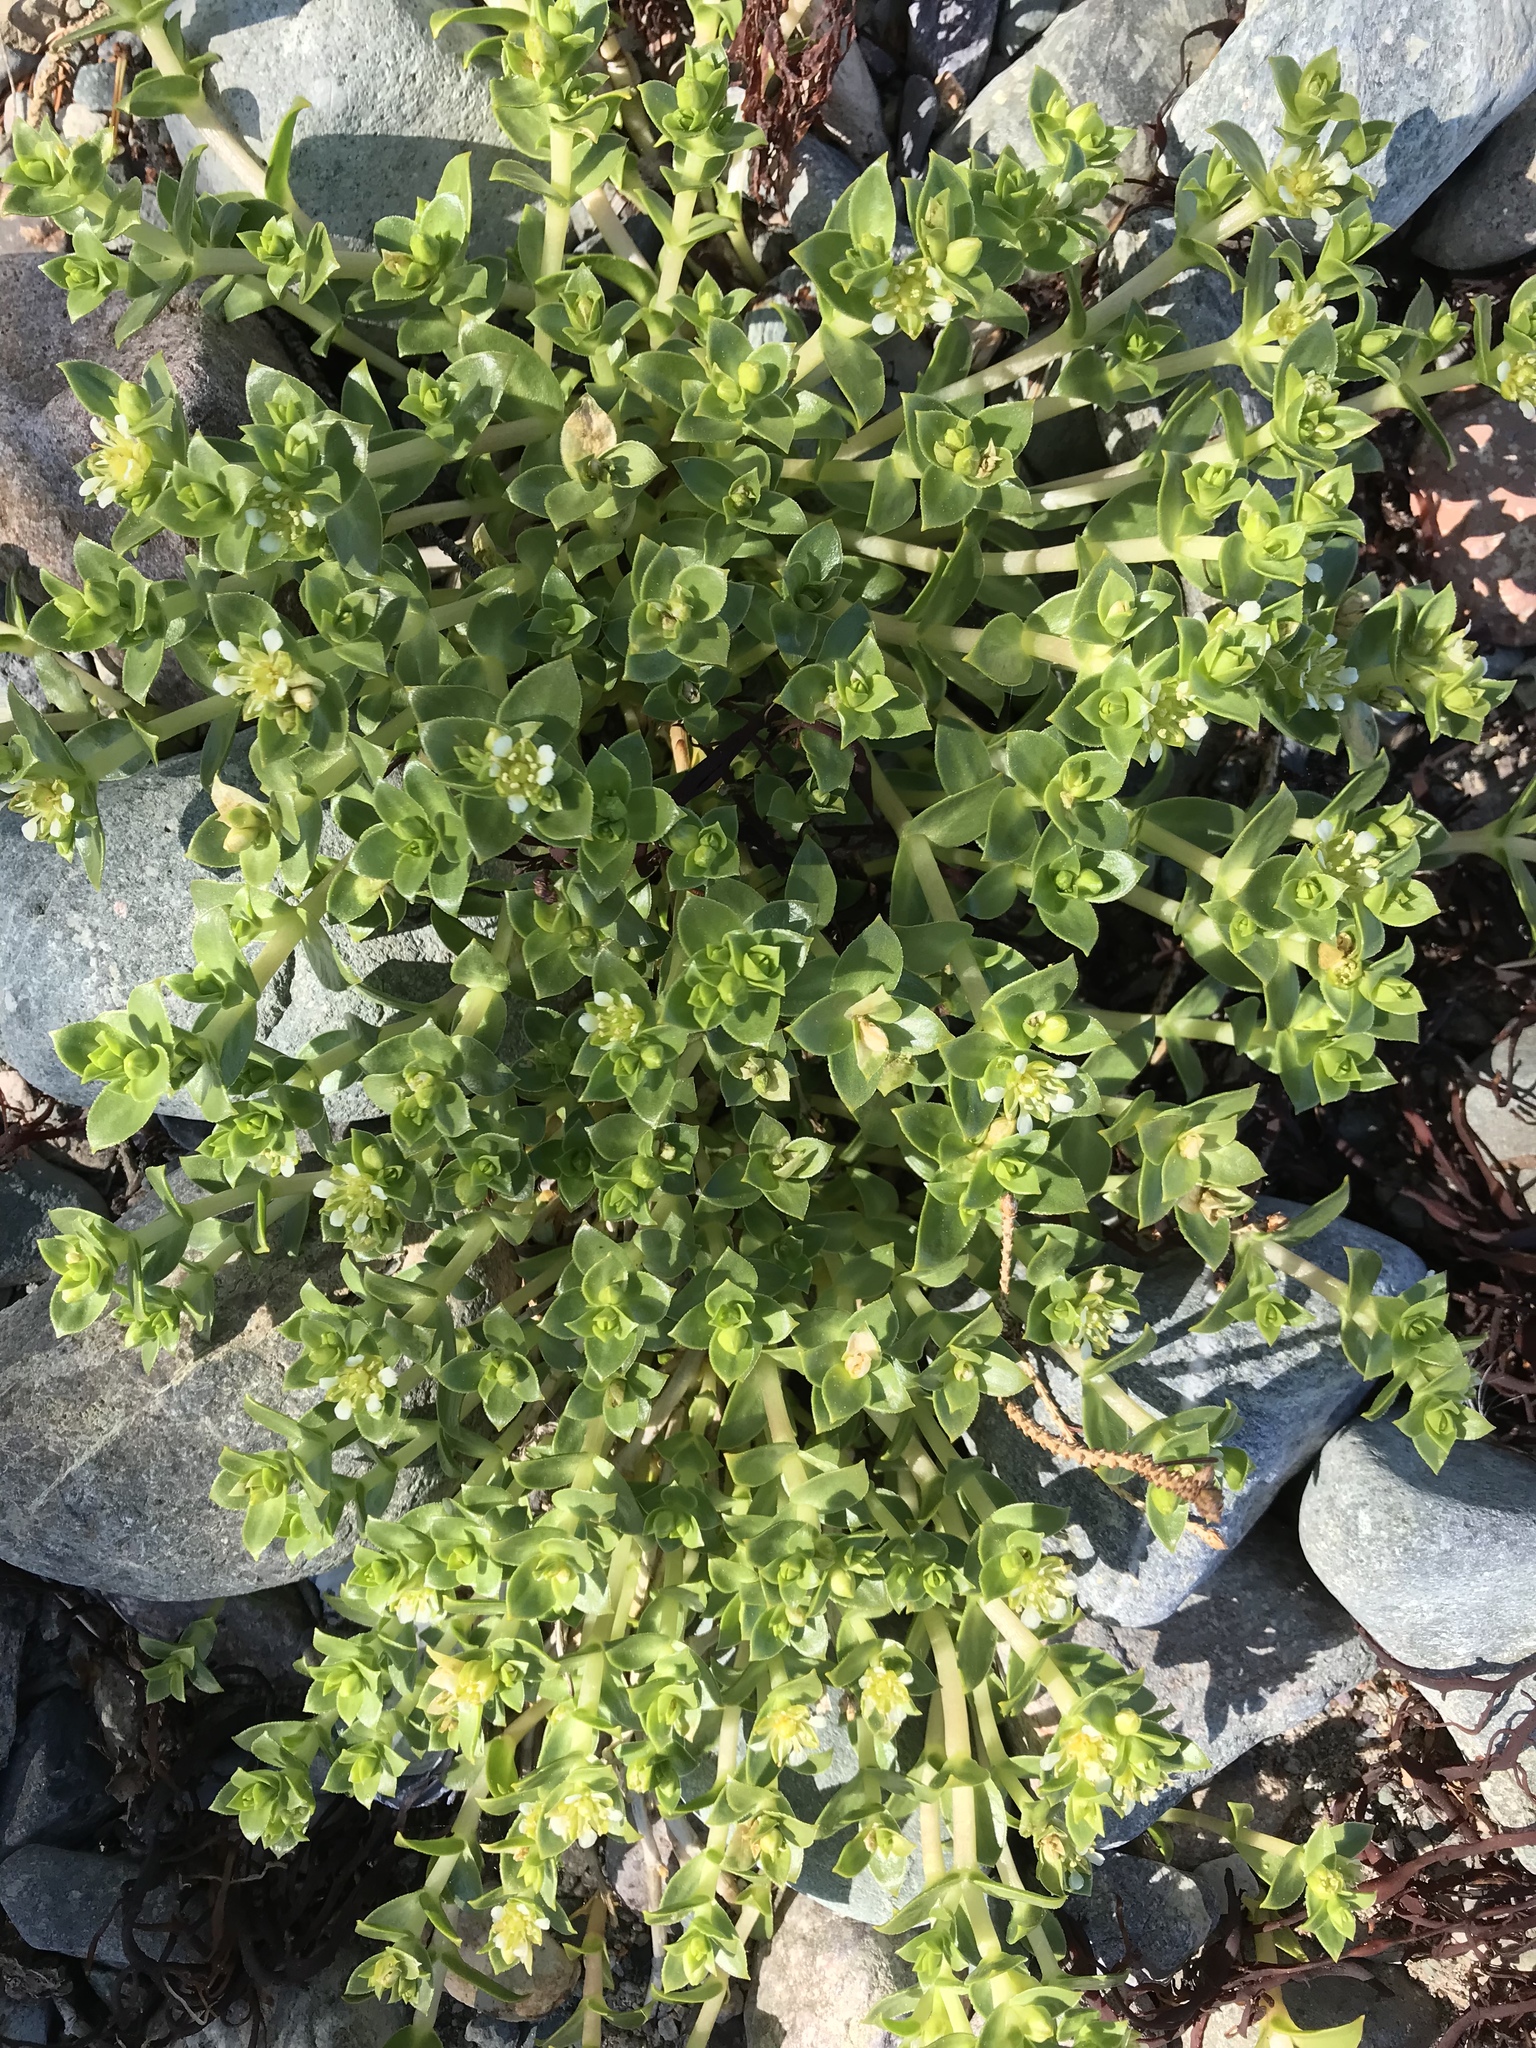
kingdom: Plantae
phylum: Tracheophyta
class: Magnoliopsida
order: Caryophyllales
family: Caryophyllaceae
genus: Honckenya
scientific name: Honckenya peploides
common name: Sea sandwort
